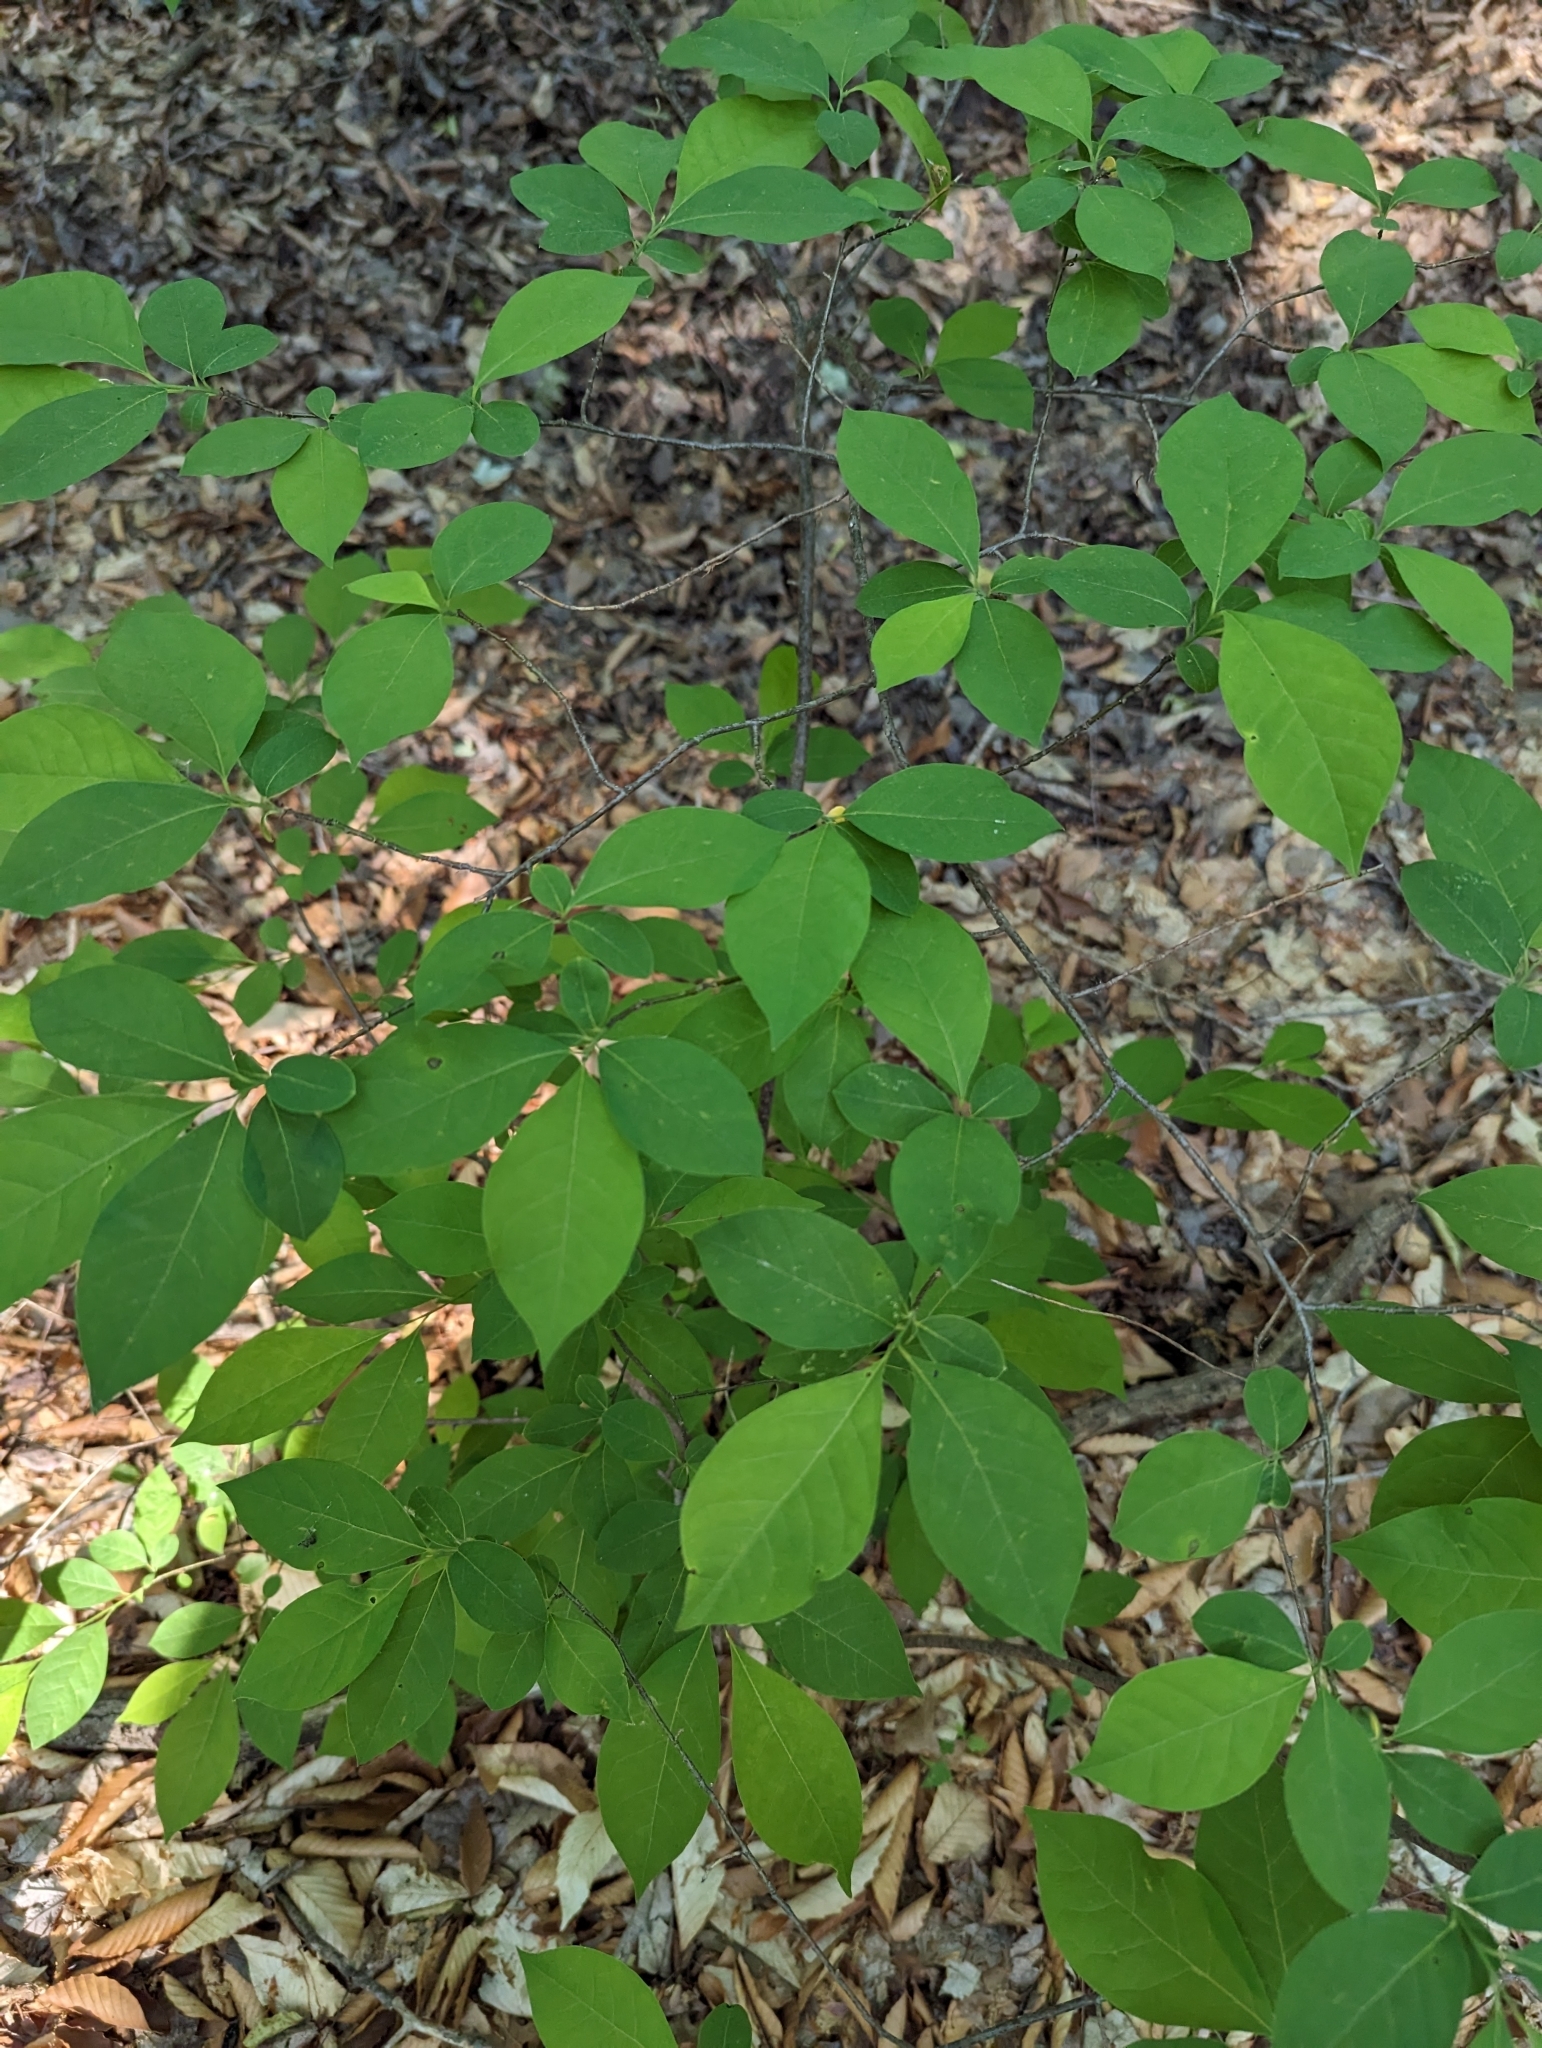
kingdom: Plantae
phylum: Tracheophyta
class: Magnoliopsida
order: Laurales
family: Lauraceae
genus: Lindera
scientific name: Lindera benzoin
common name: Spicebush
